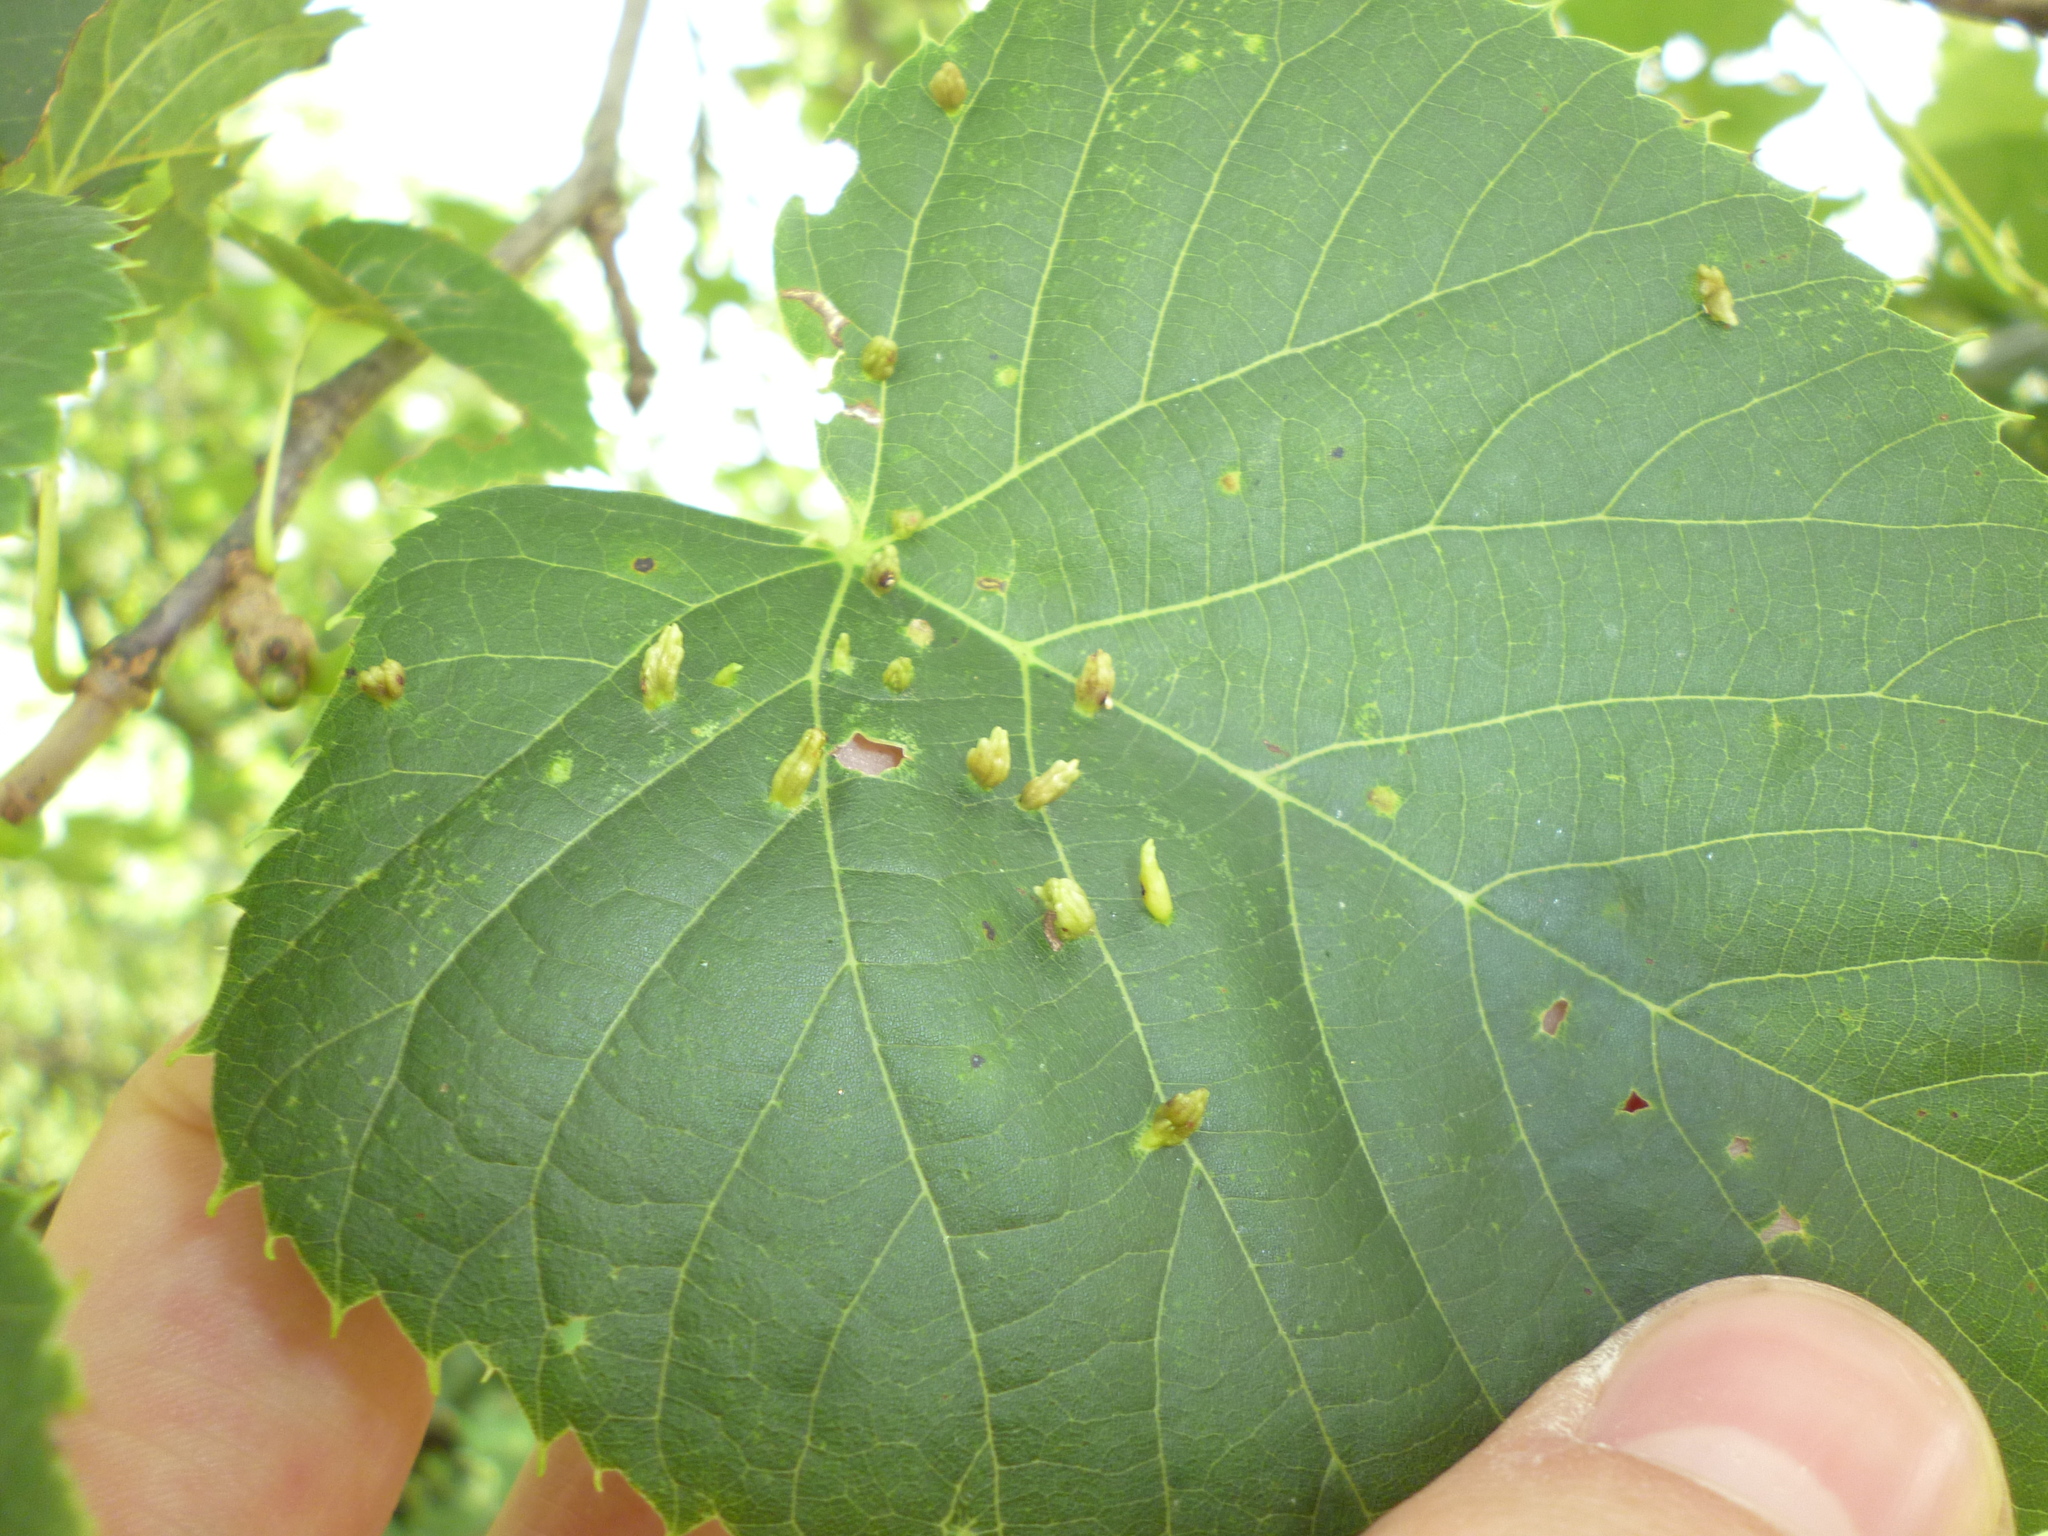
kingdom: Animalia
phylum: Arthropoda
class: Arachnida
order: Trombidiformes
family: Eriophyidae
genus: Eriophyes
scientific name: Eriophyes tiliae
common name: Red nail gall mite
